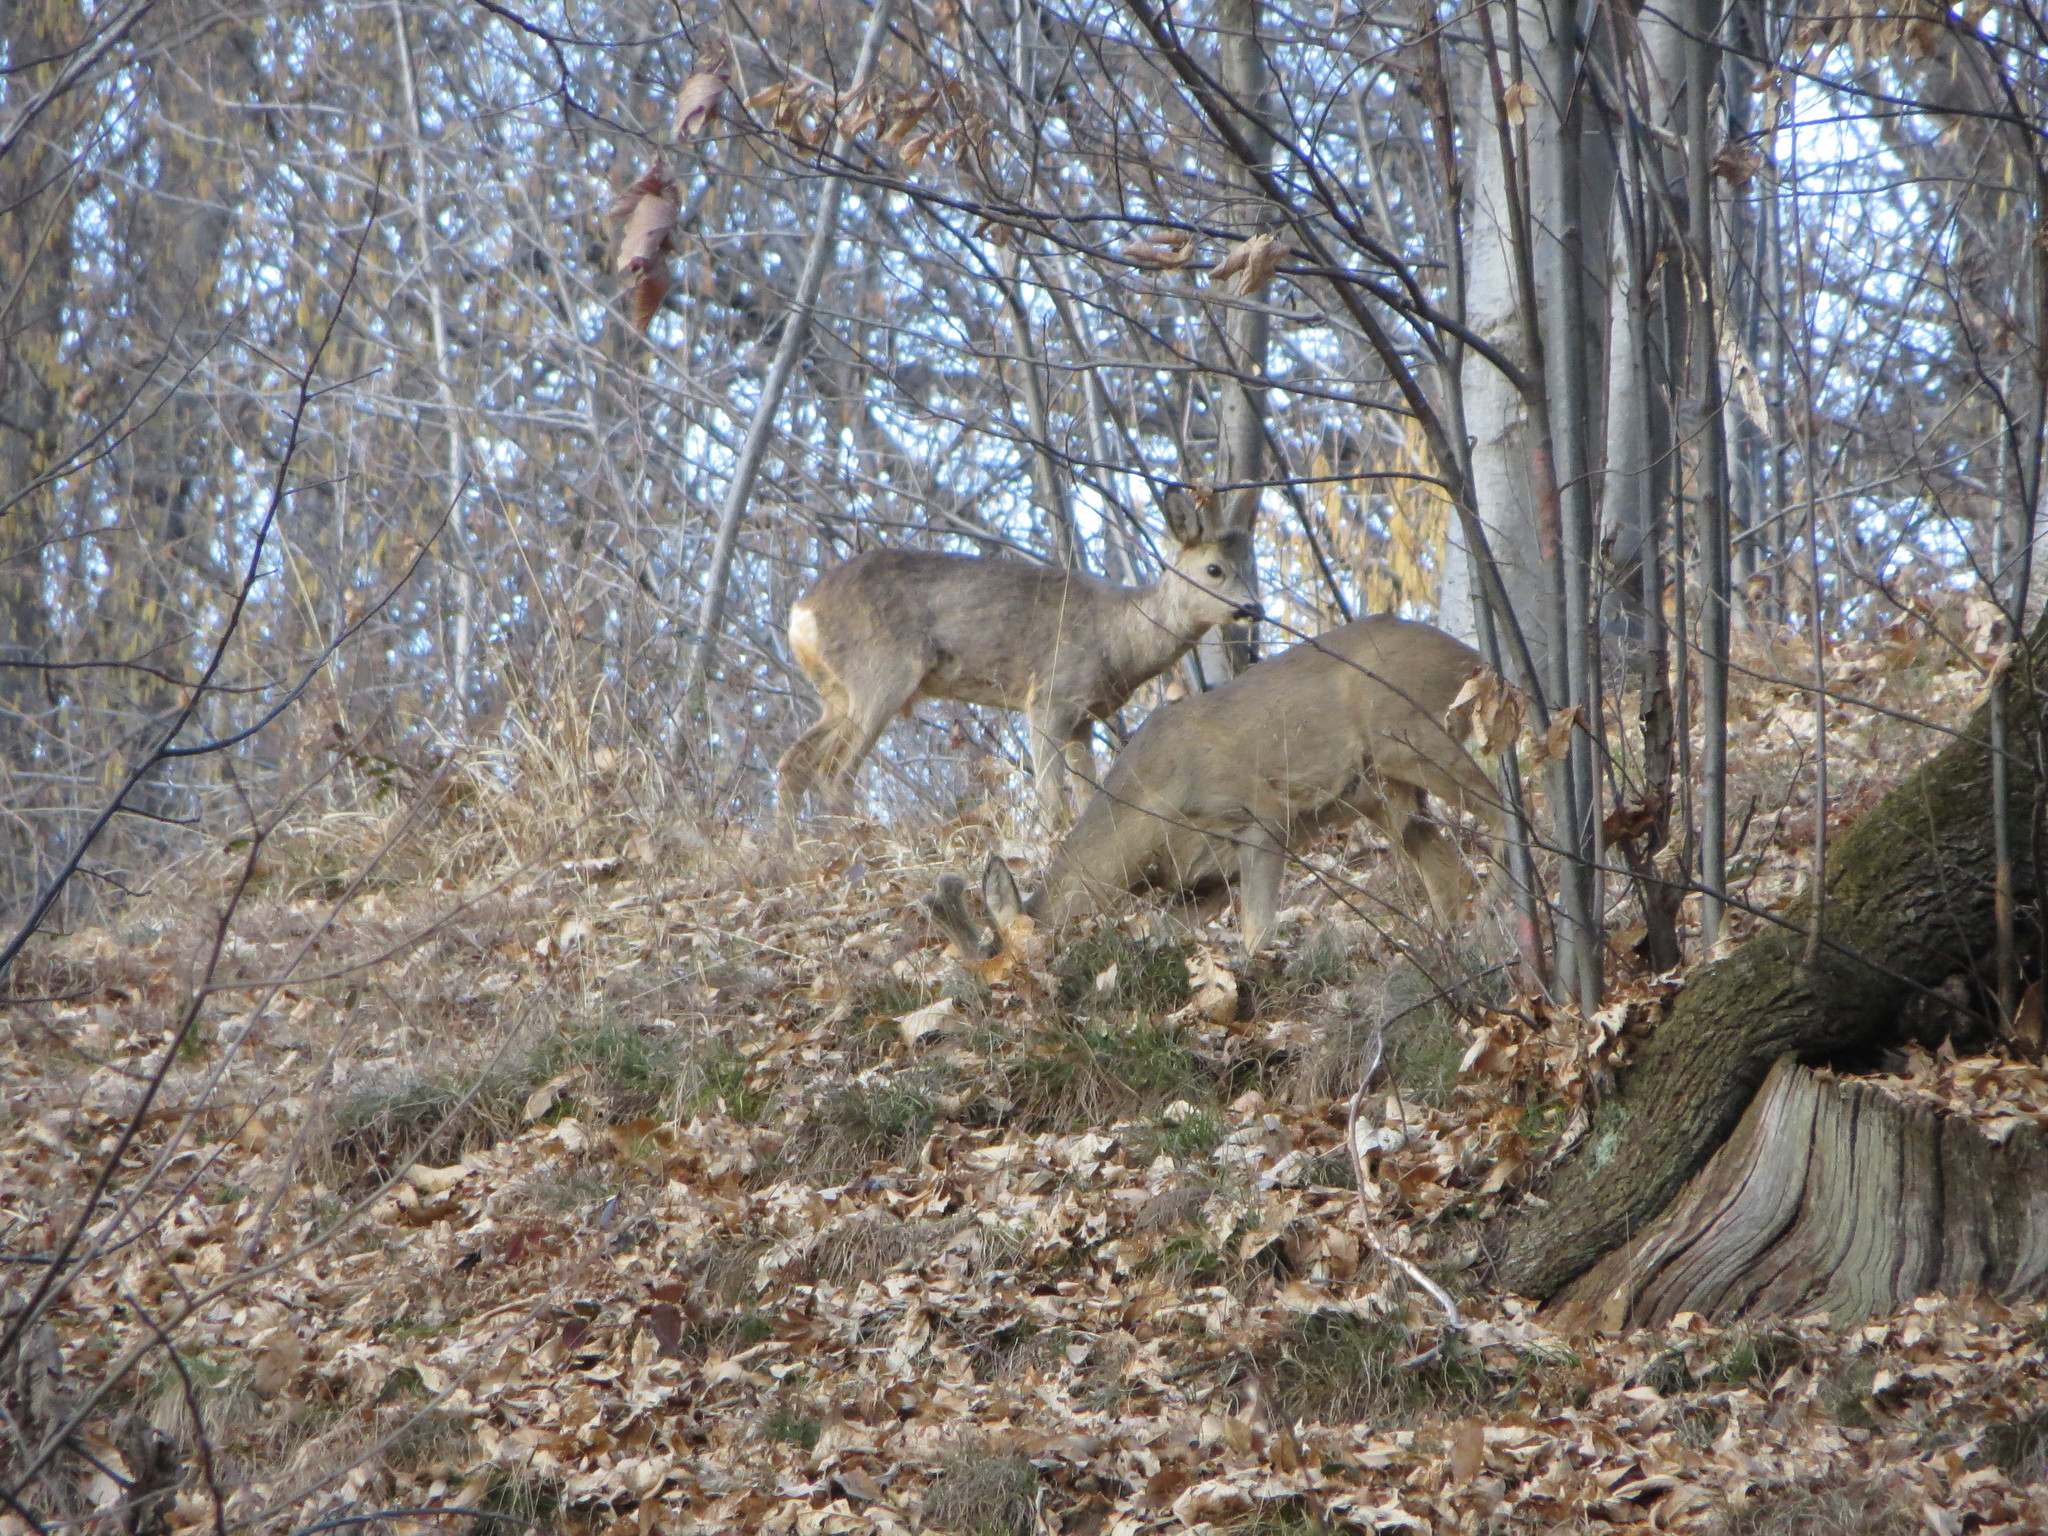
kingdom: Animalia
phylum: Chordata
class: Mammalia
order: Artiodactyla
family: Cervidae
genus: Capreolus
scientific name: Capreolus capreolus
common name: Western roe deer
